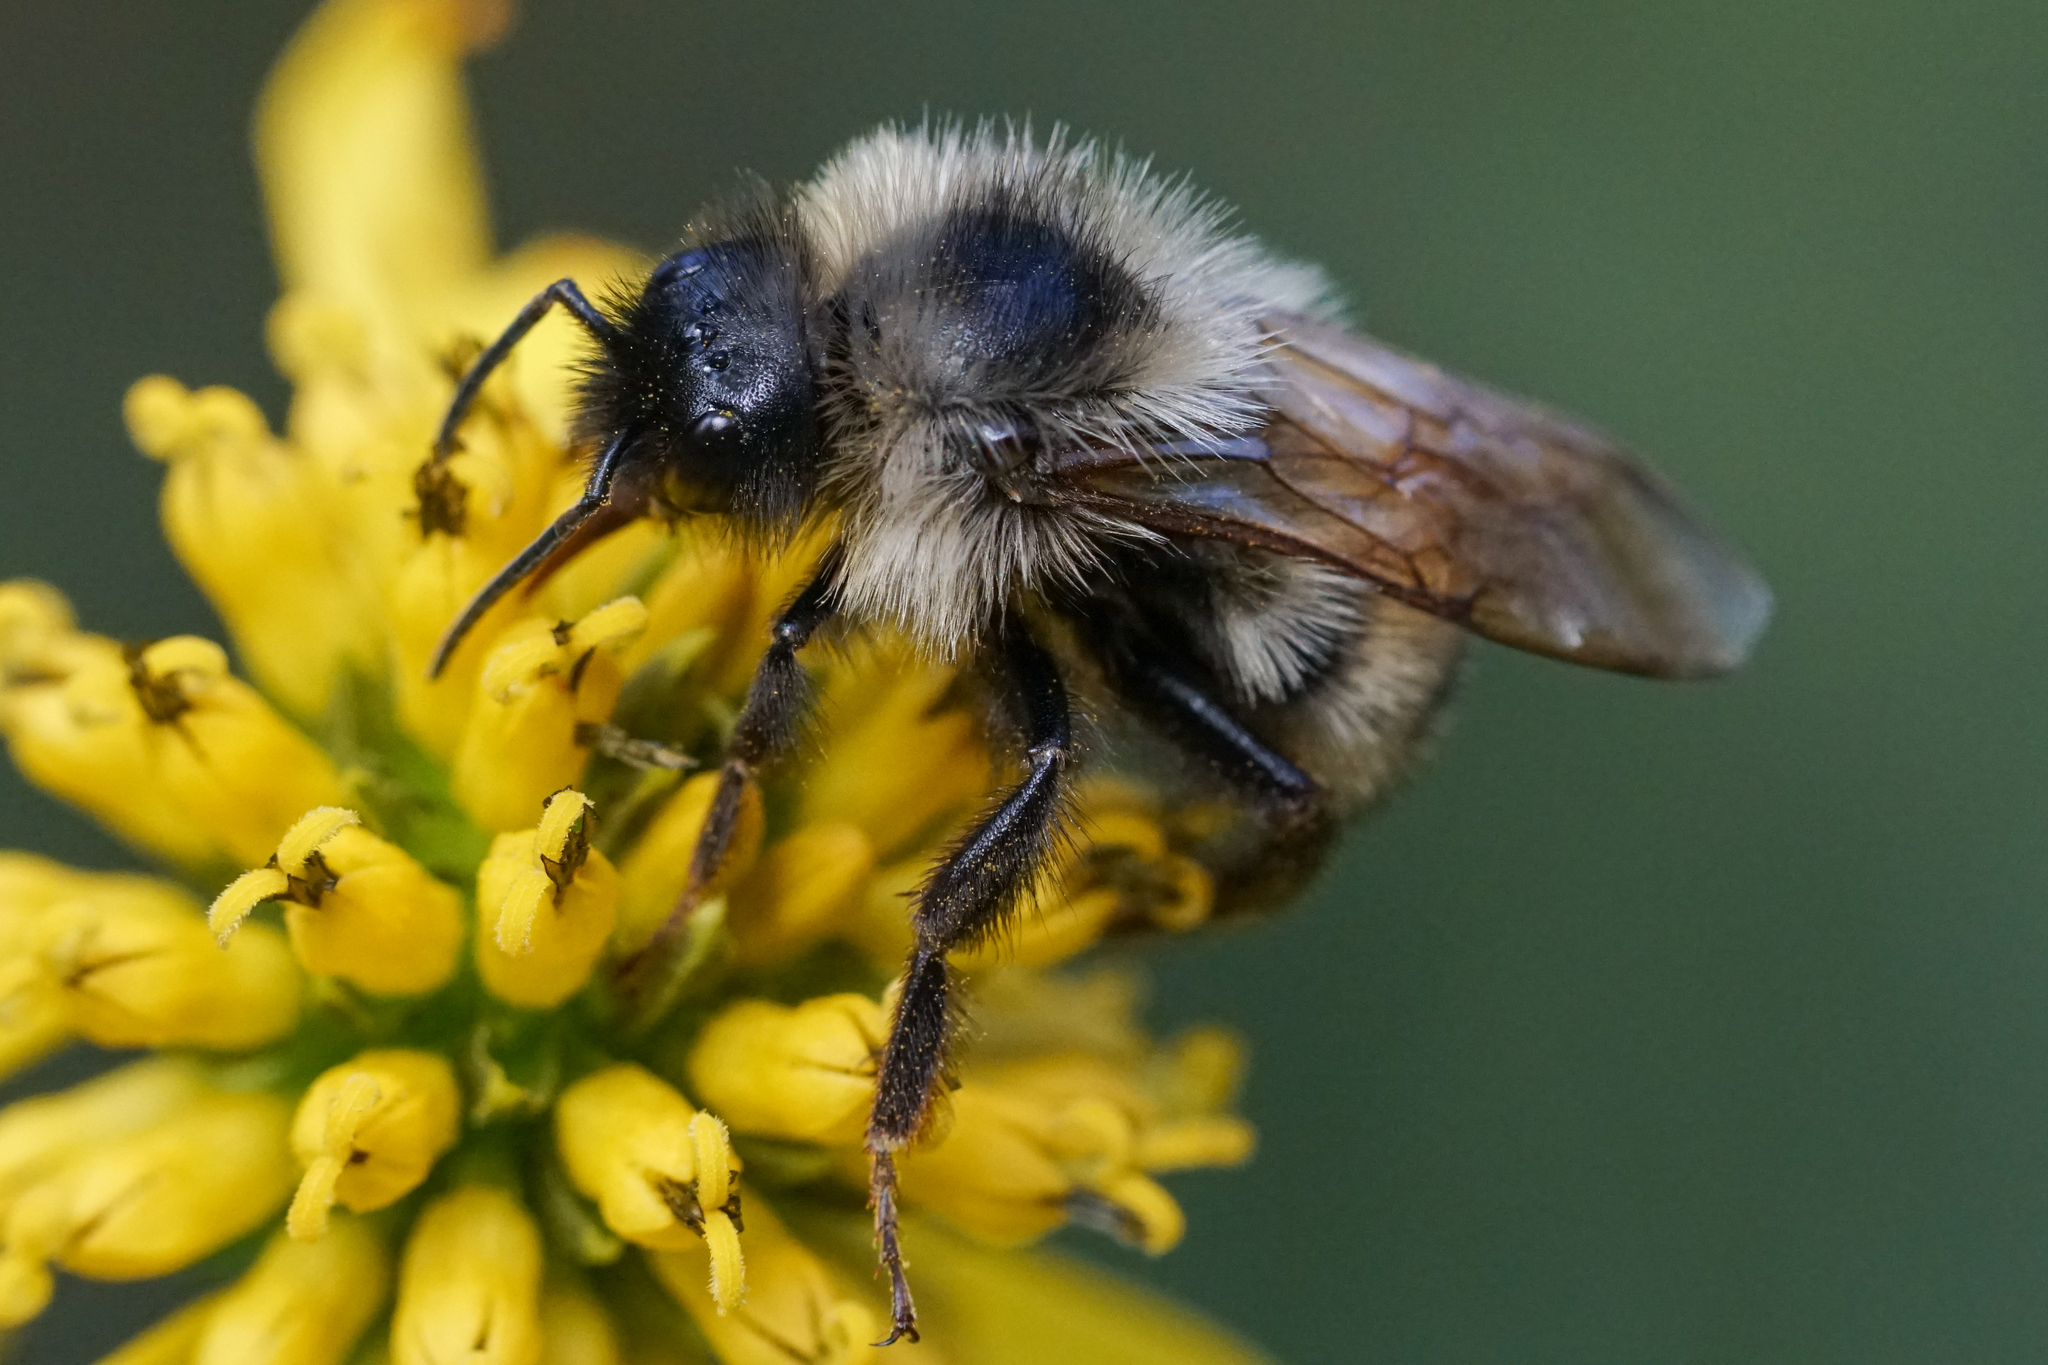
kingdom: Animalia
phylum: Arthropoda
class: Insecta
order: Hymenoptera
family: Apidae
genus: Bombus
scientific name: Bombus citrinus
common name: Lemon cuckoo bumble bee
